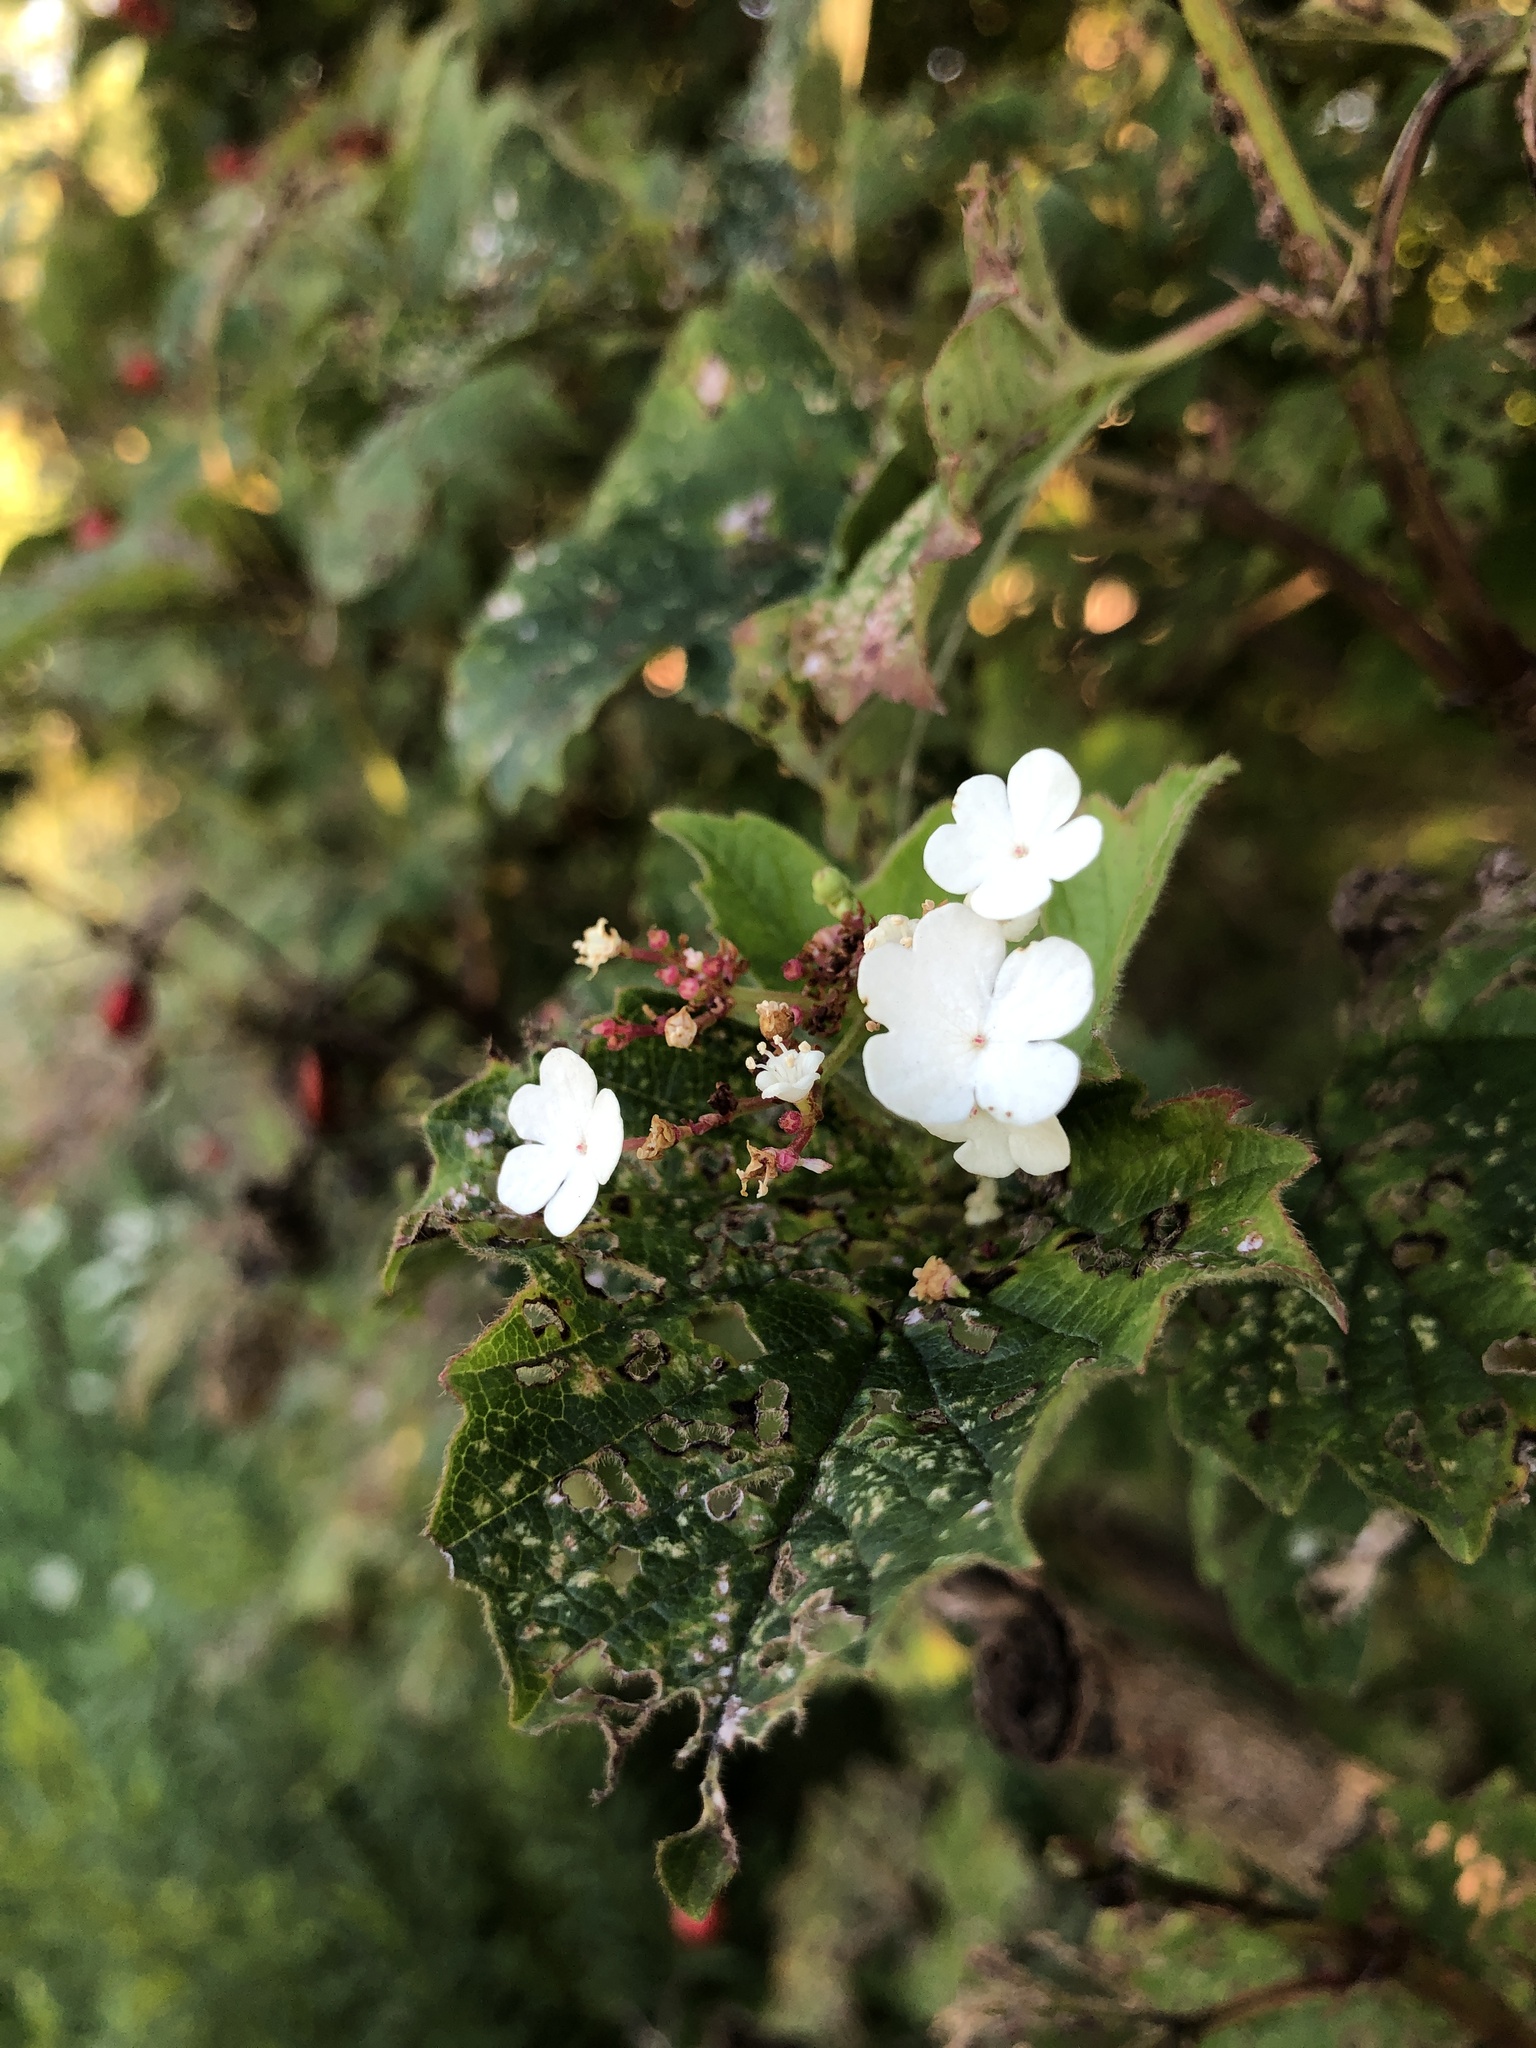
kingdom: Plantae
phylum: Tracheophyta
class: Magnoliopsida
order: Dipsacales
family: Viburnaceae
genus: Viburnum
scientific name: Viburnum opulus
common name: Guelder-rose
